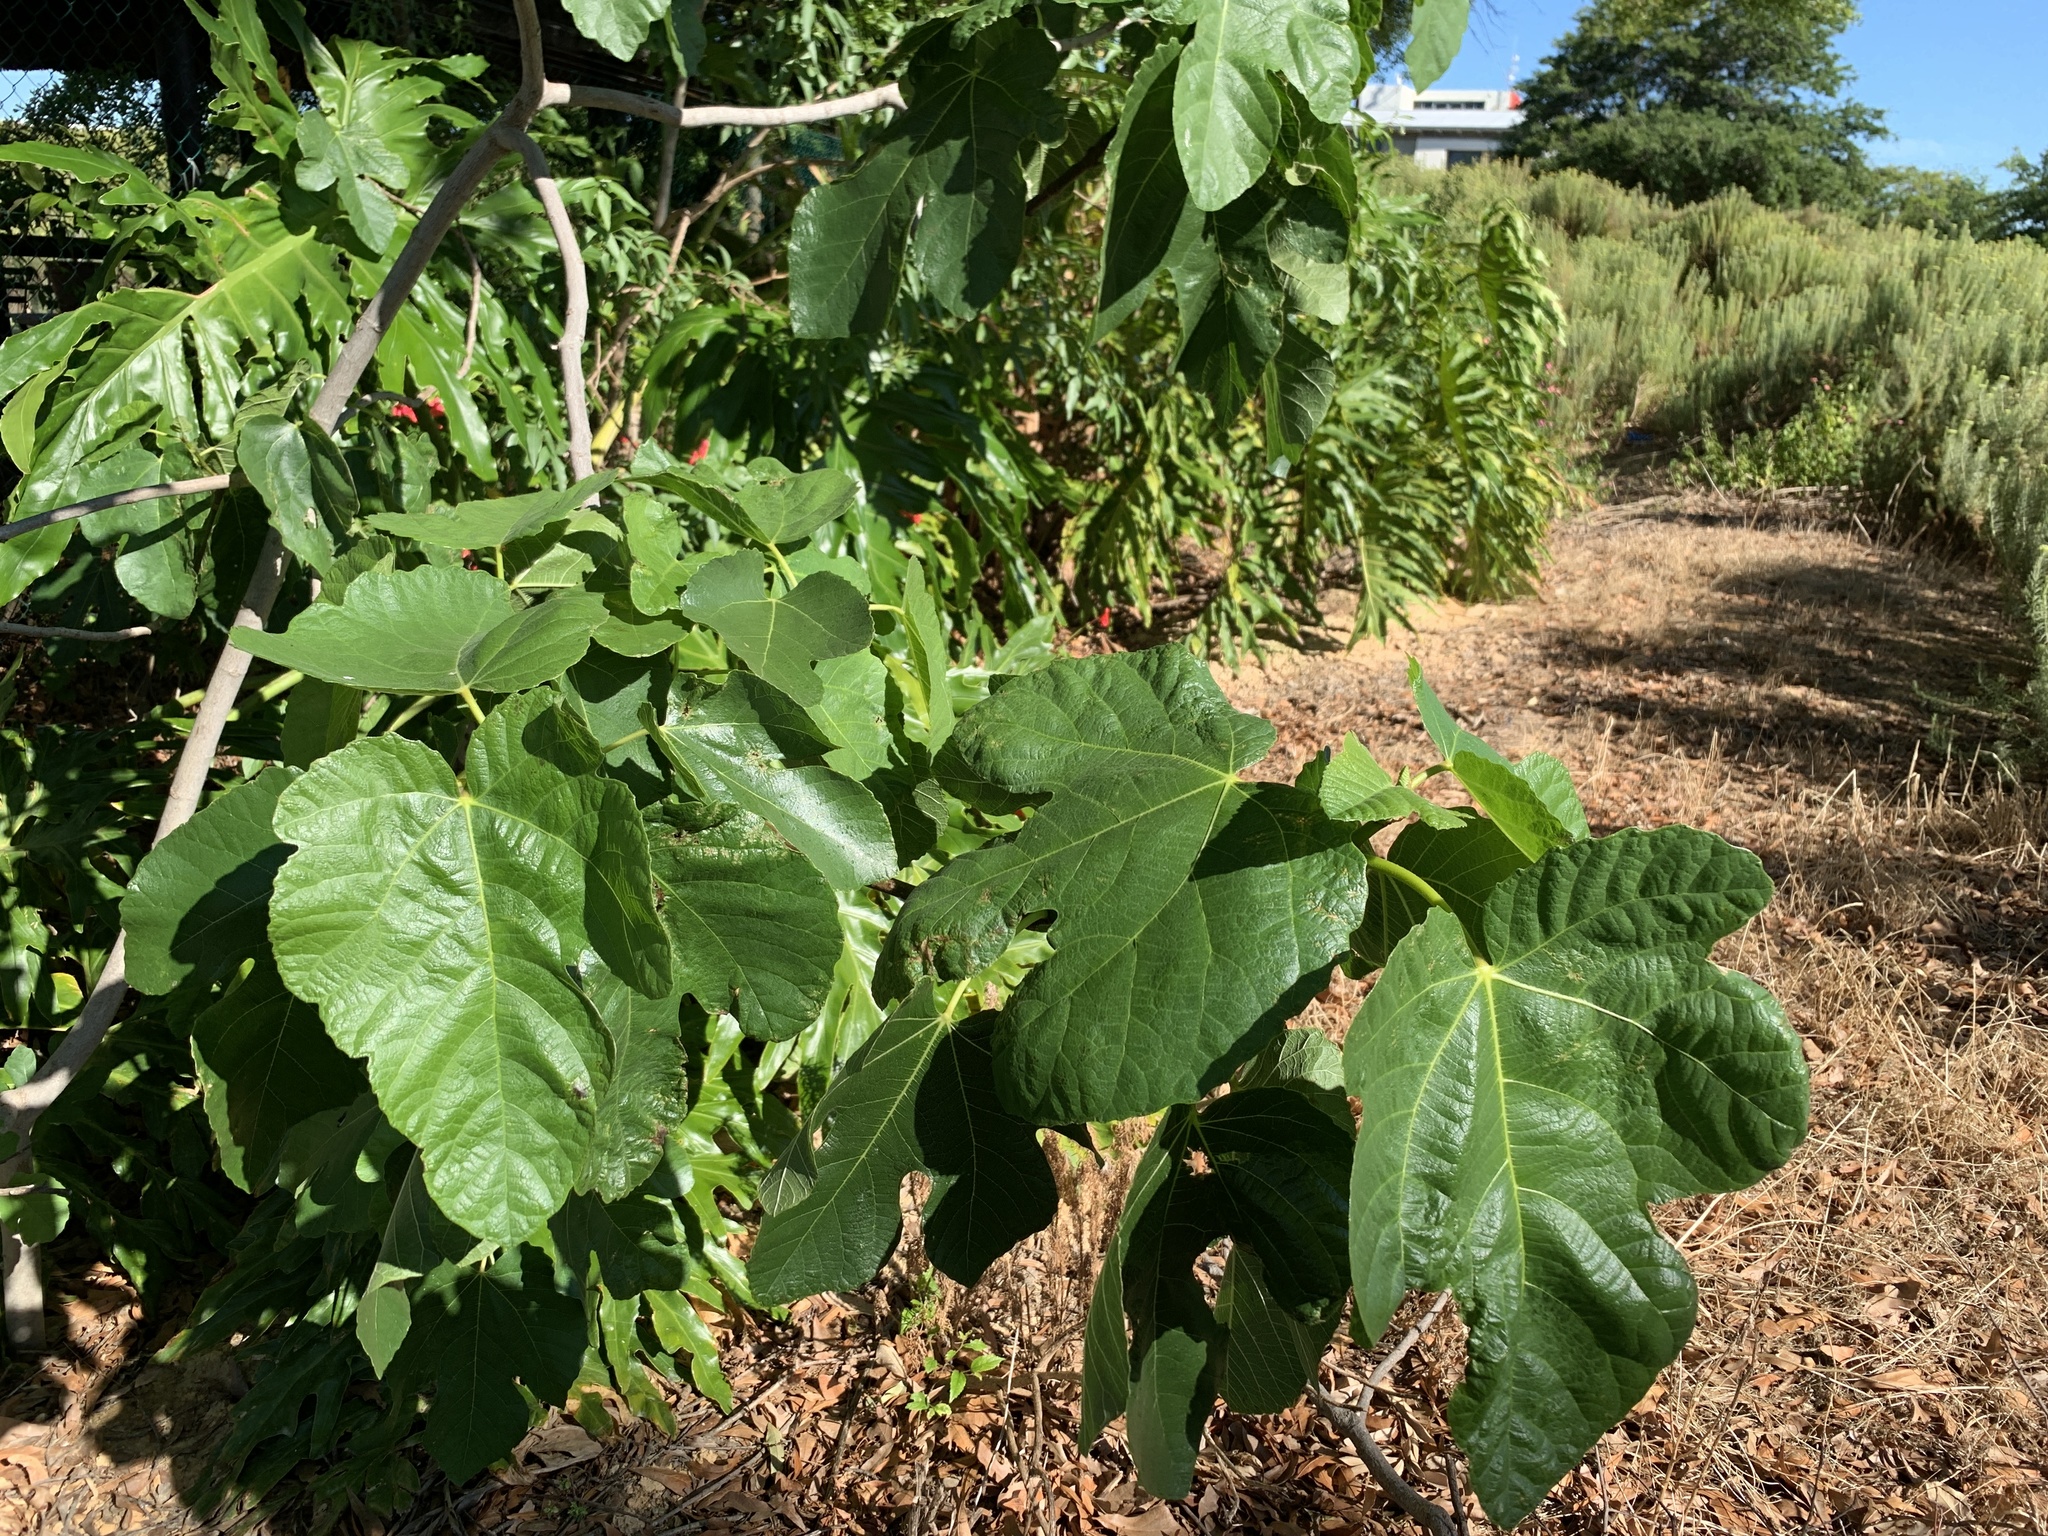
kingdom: Plantae
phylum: Tracheophyta
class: Magnoliopsida
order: Rosales
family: Moraceae
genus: Ficus
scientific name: Ficus carica
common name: Fig
